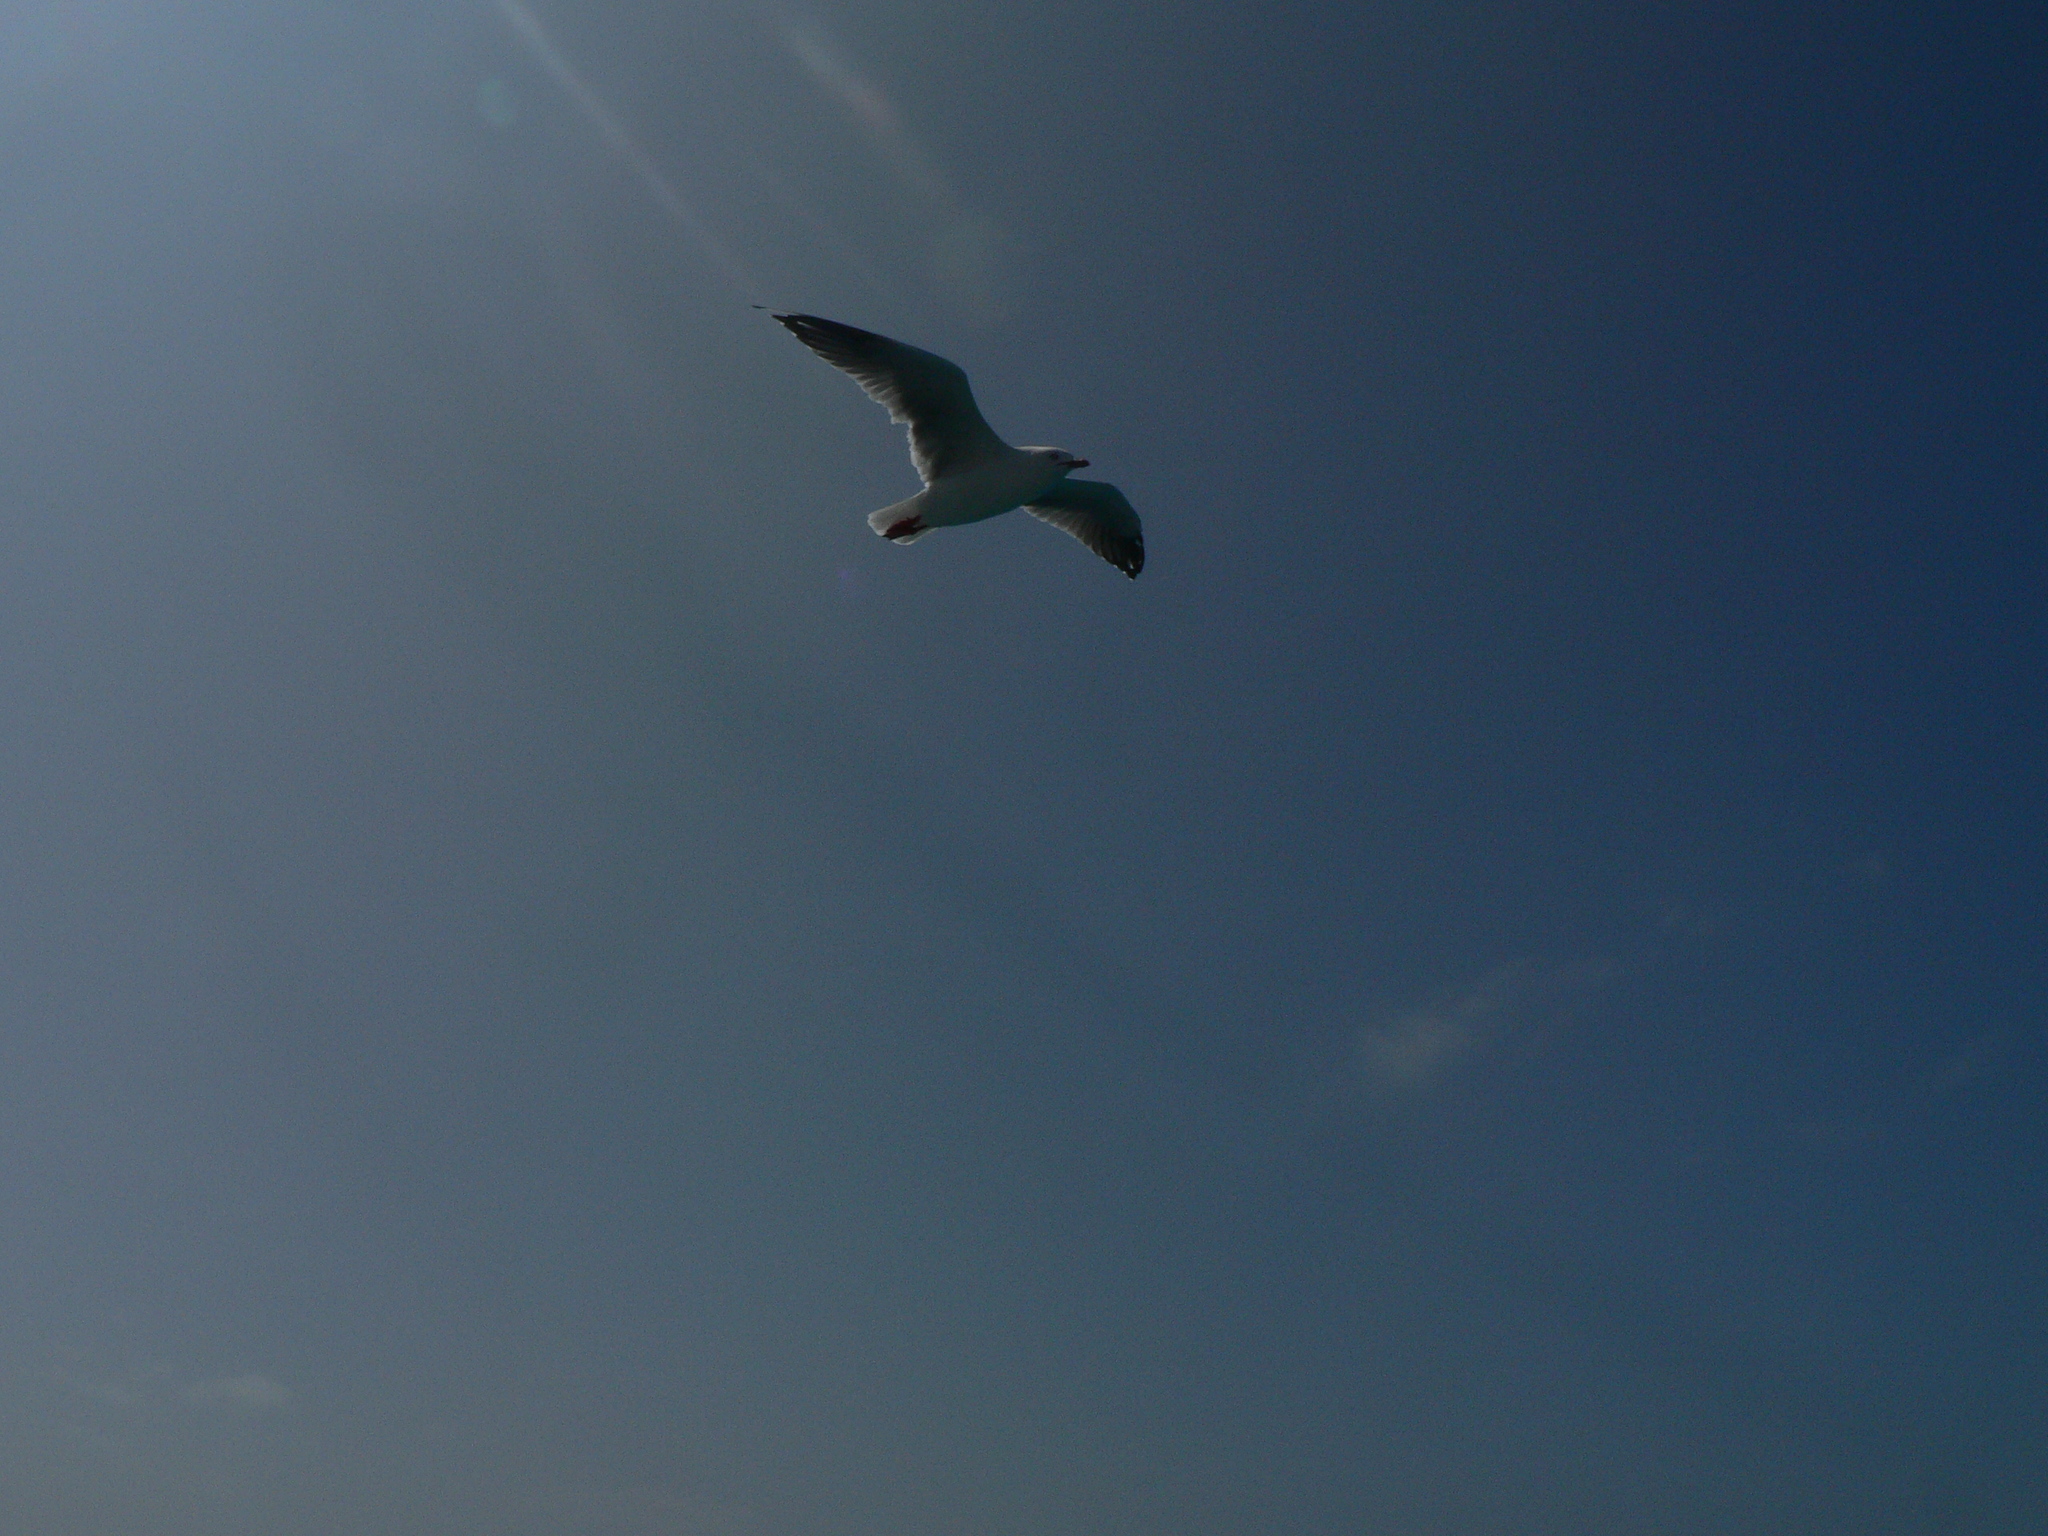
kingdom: Animalia
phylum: Chordata
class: Aves
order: Charadriiformes
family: Laridae
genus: Chroicocephalus
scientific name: Chroicocephalus novaehollandiae
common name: Silver gull
